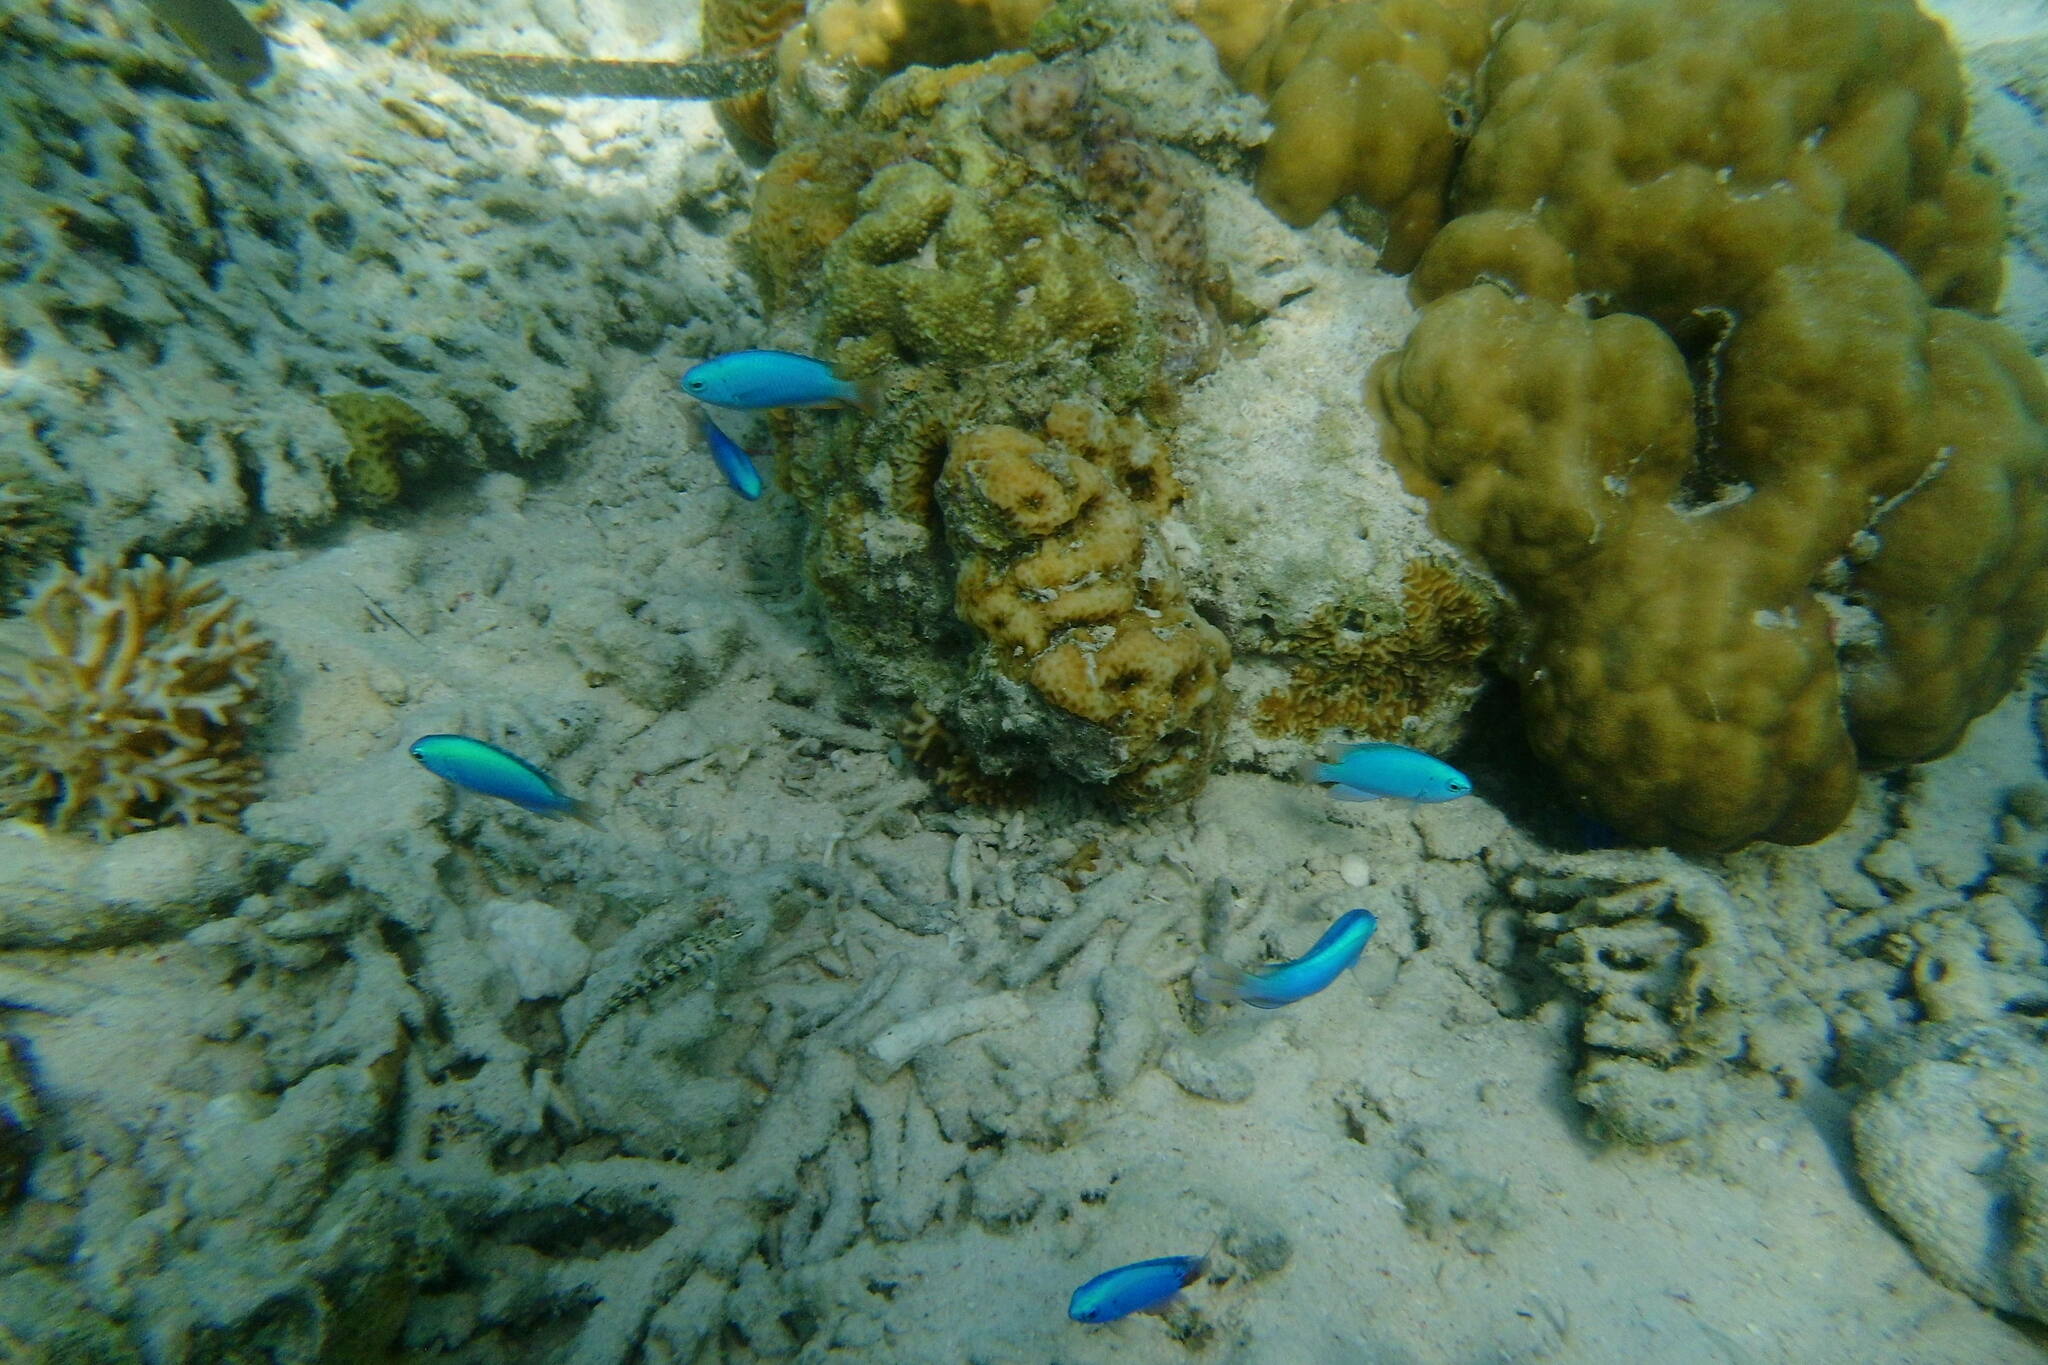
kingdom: Animalia
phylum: Chordata
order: Perciformes
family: Pomacentridae
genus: Pomacentrus
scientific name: Pomacentrus coelestis
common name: Neon damsel
